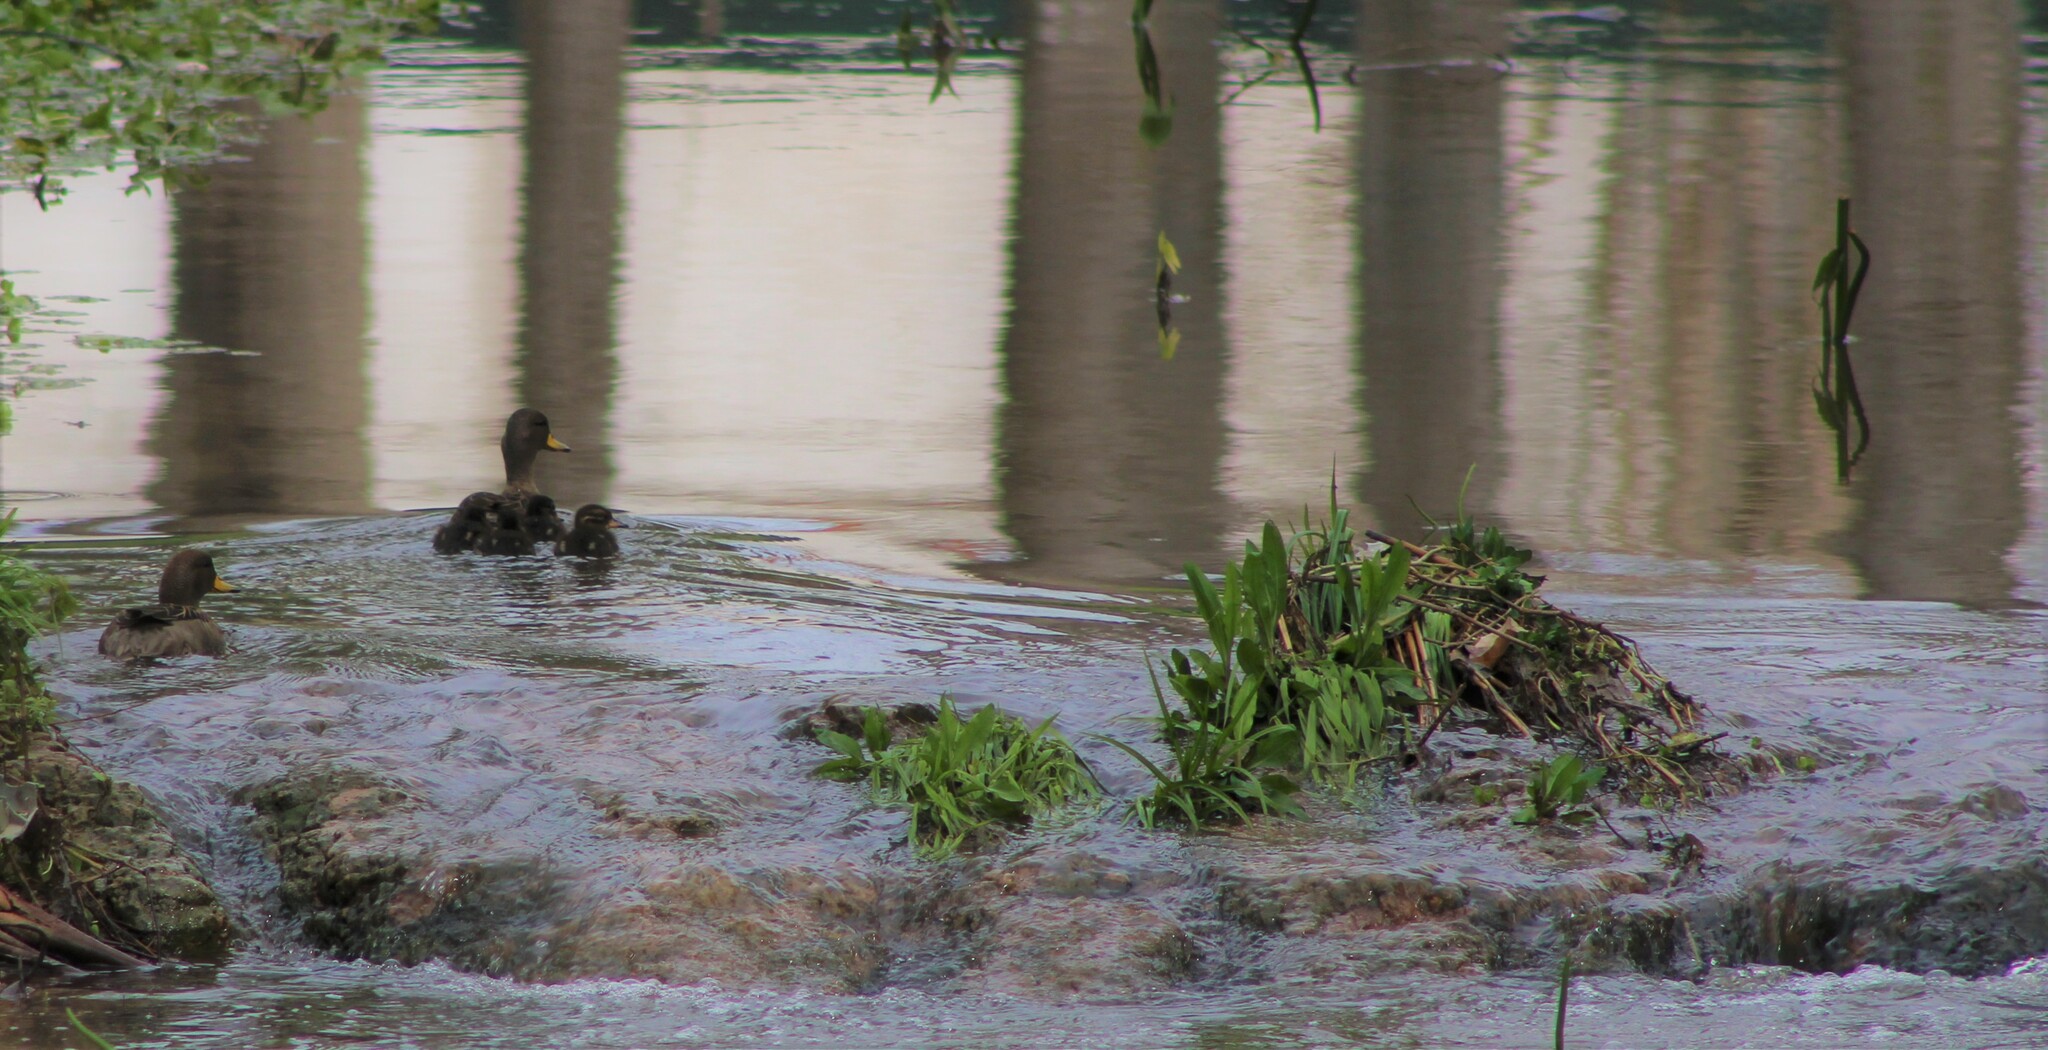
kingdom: Animalia
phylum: Chordata
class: Aves
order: Anseriformes
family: Anatidae
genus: Anas
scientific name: Anas flavirostris
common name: Yellow-billed teal
